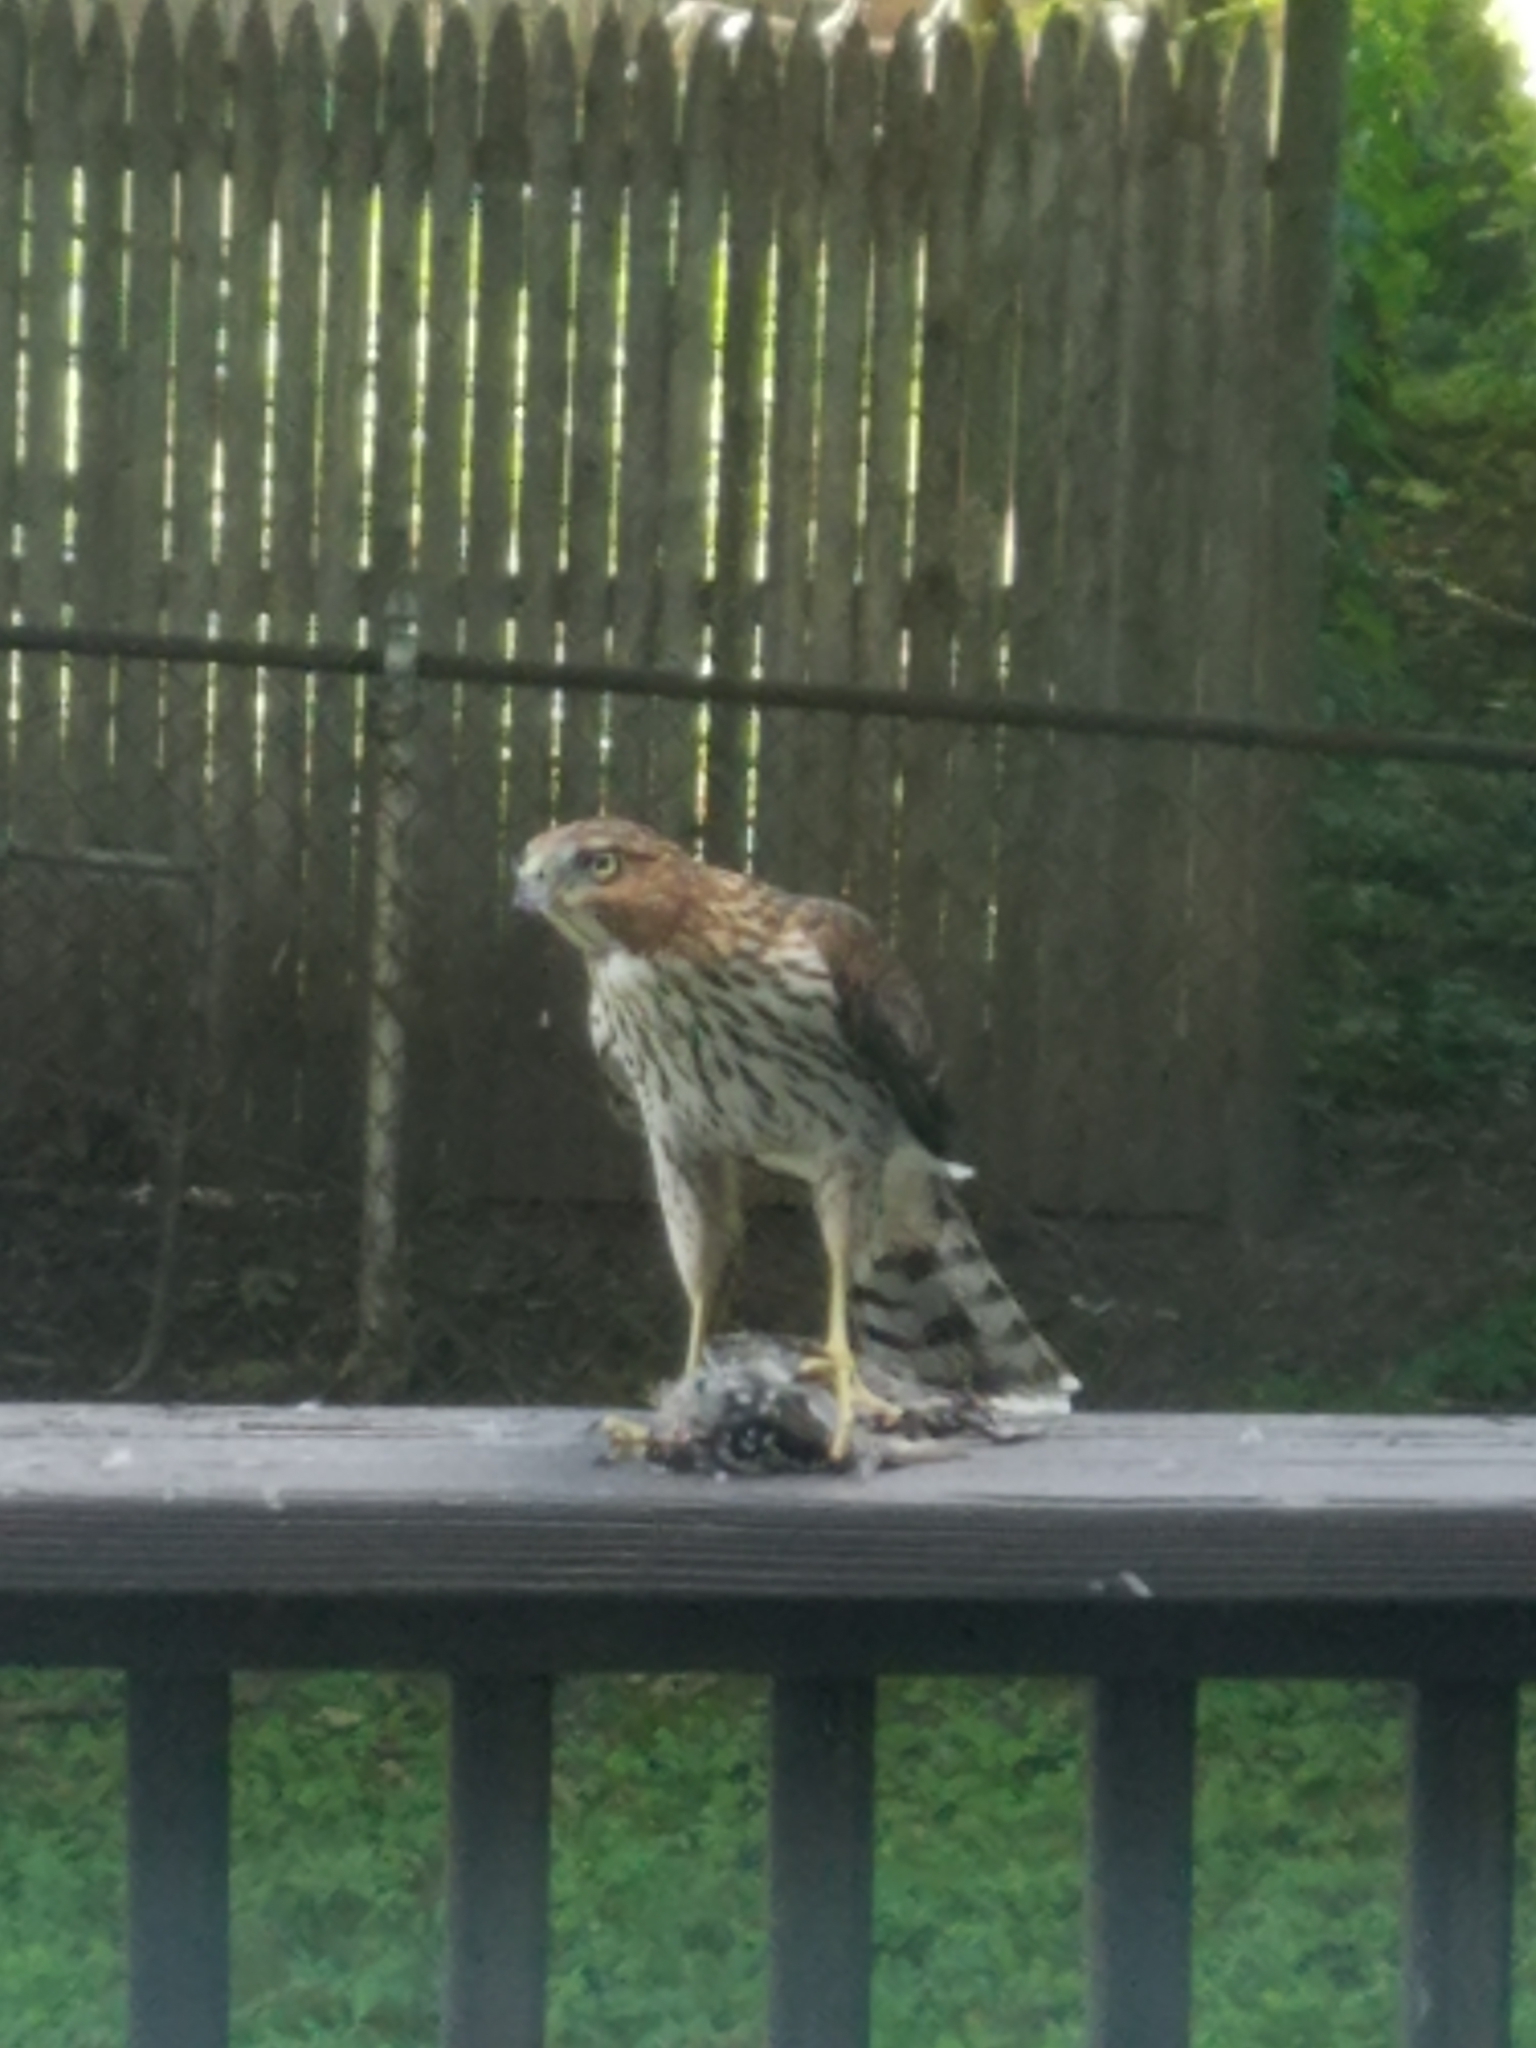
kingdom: Animalia
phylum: Chordata
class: Aves
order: Accipitriformes
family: Accipitridae
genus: Accipiter
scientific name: Accipiter cooperii
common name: Cooper's hawk
